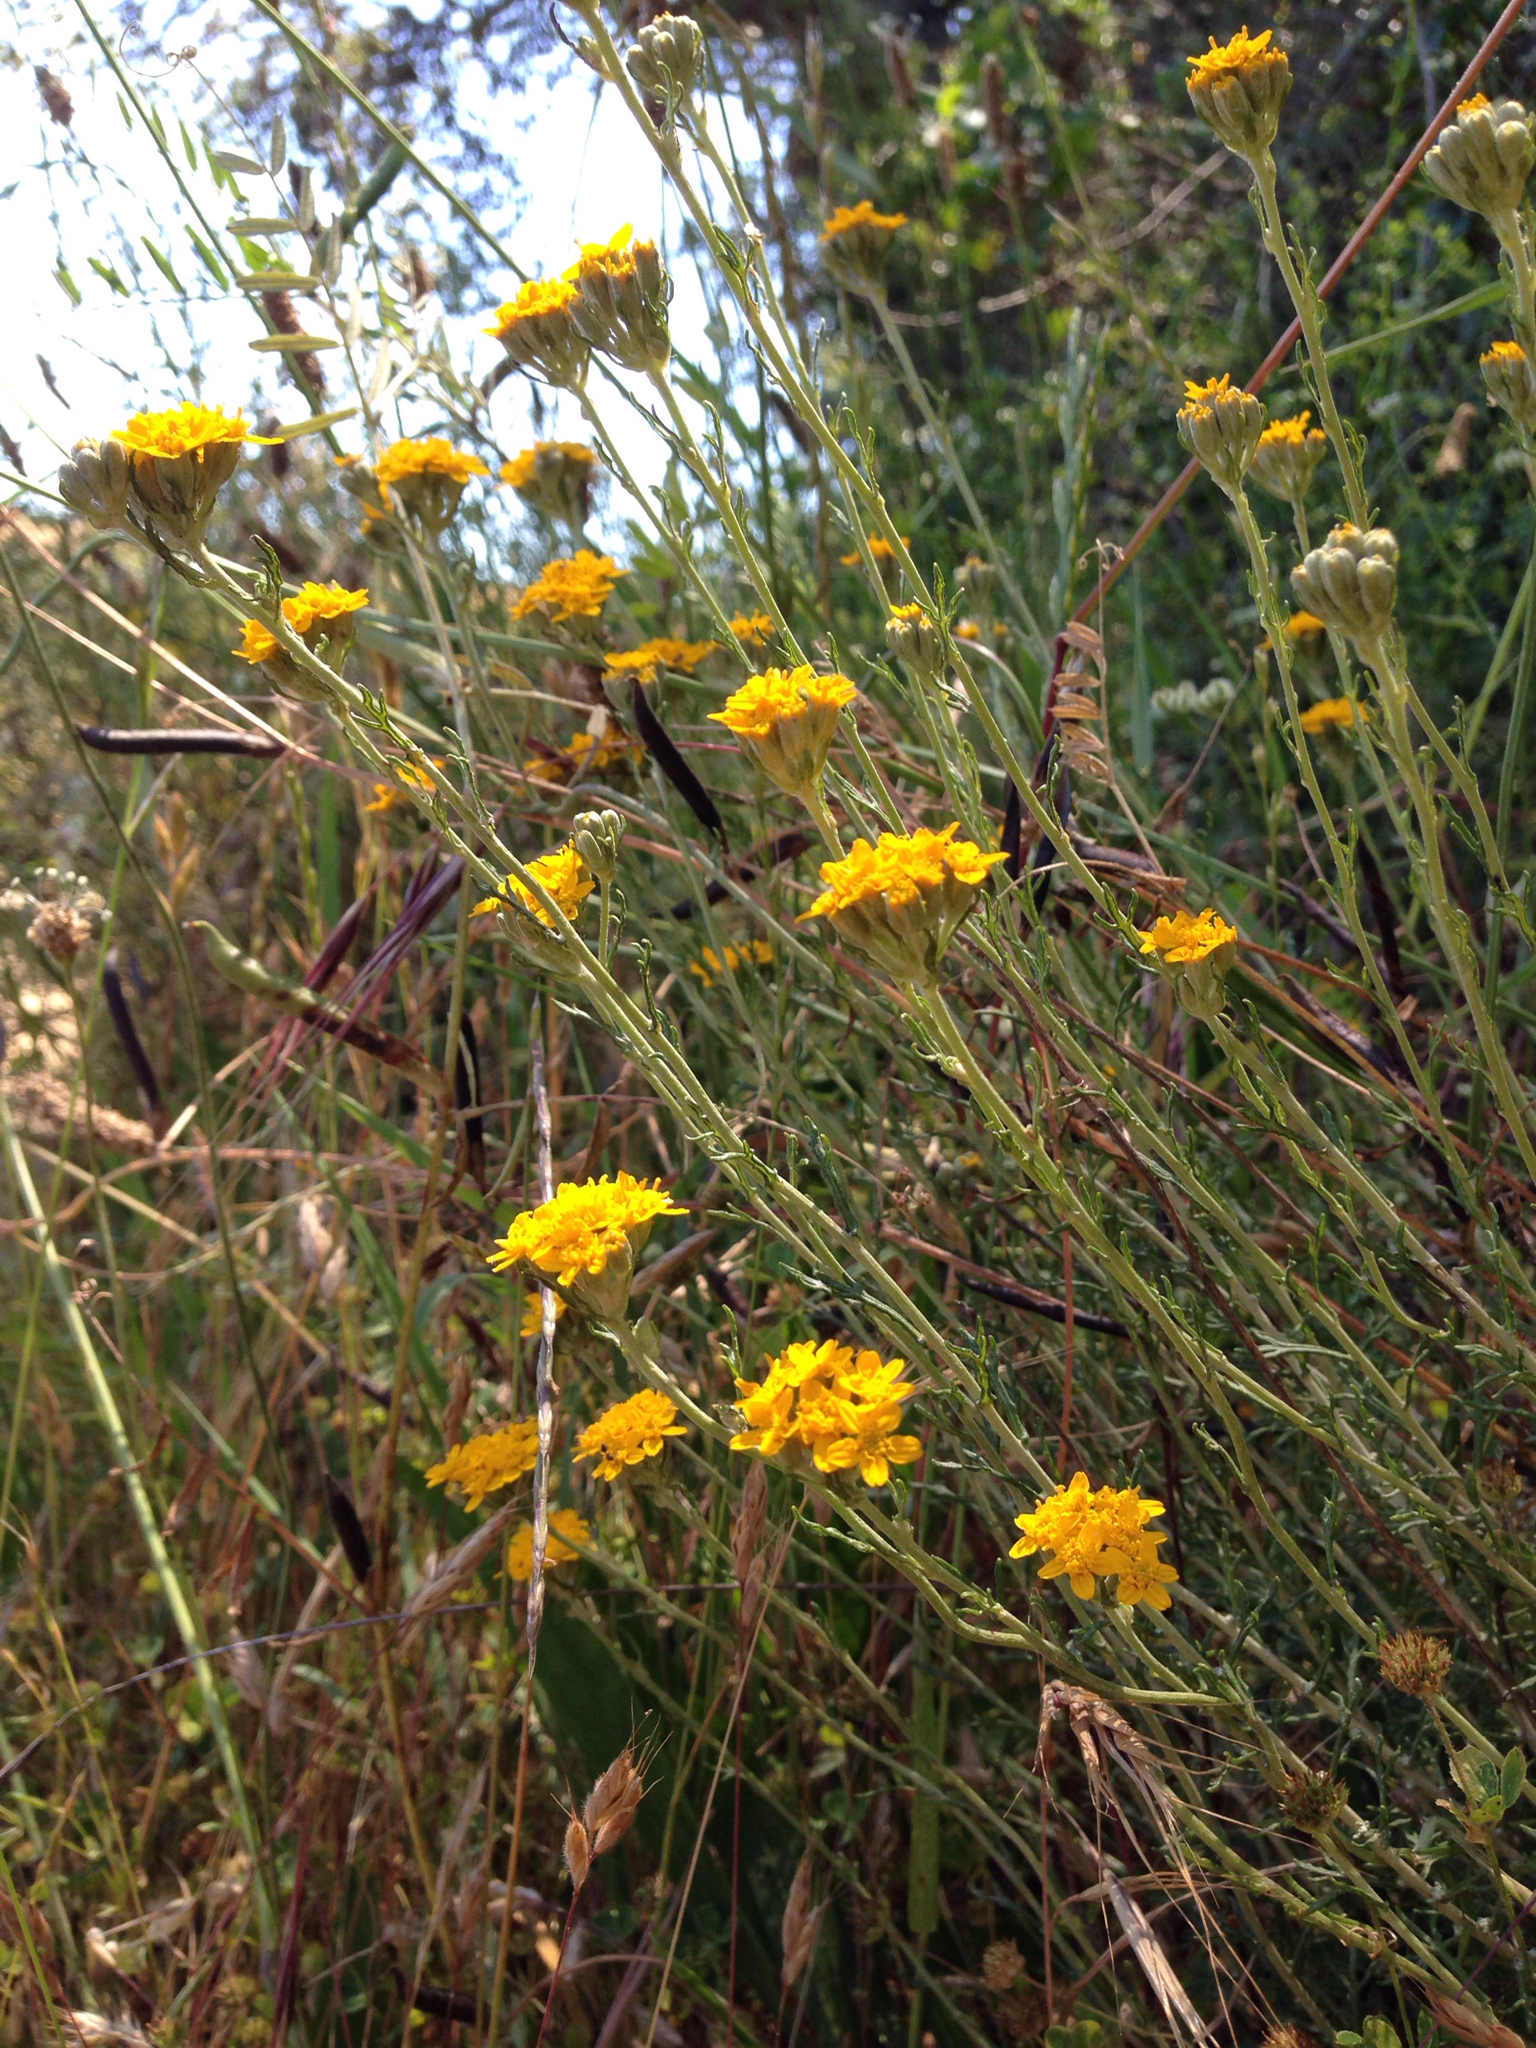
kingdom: Plantae
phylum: Tracheophyta
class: Magnoliopsida
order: Asterales
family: Asteraceae
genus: Eriophyllum
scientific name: Eriophyllum confertiflorum
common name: Golden-yarrow
